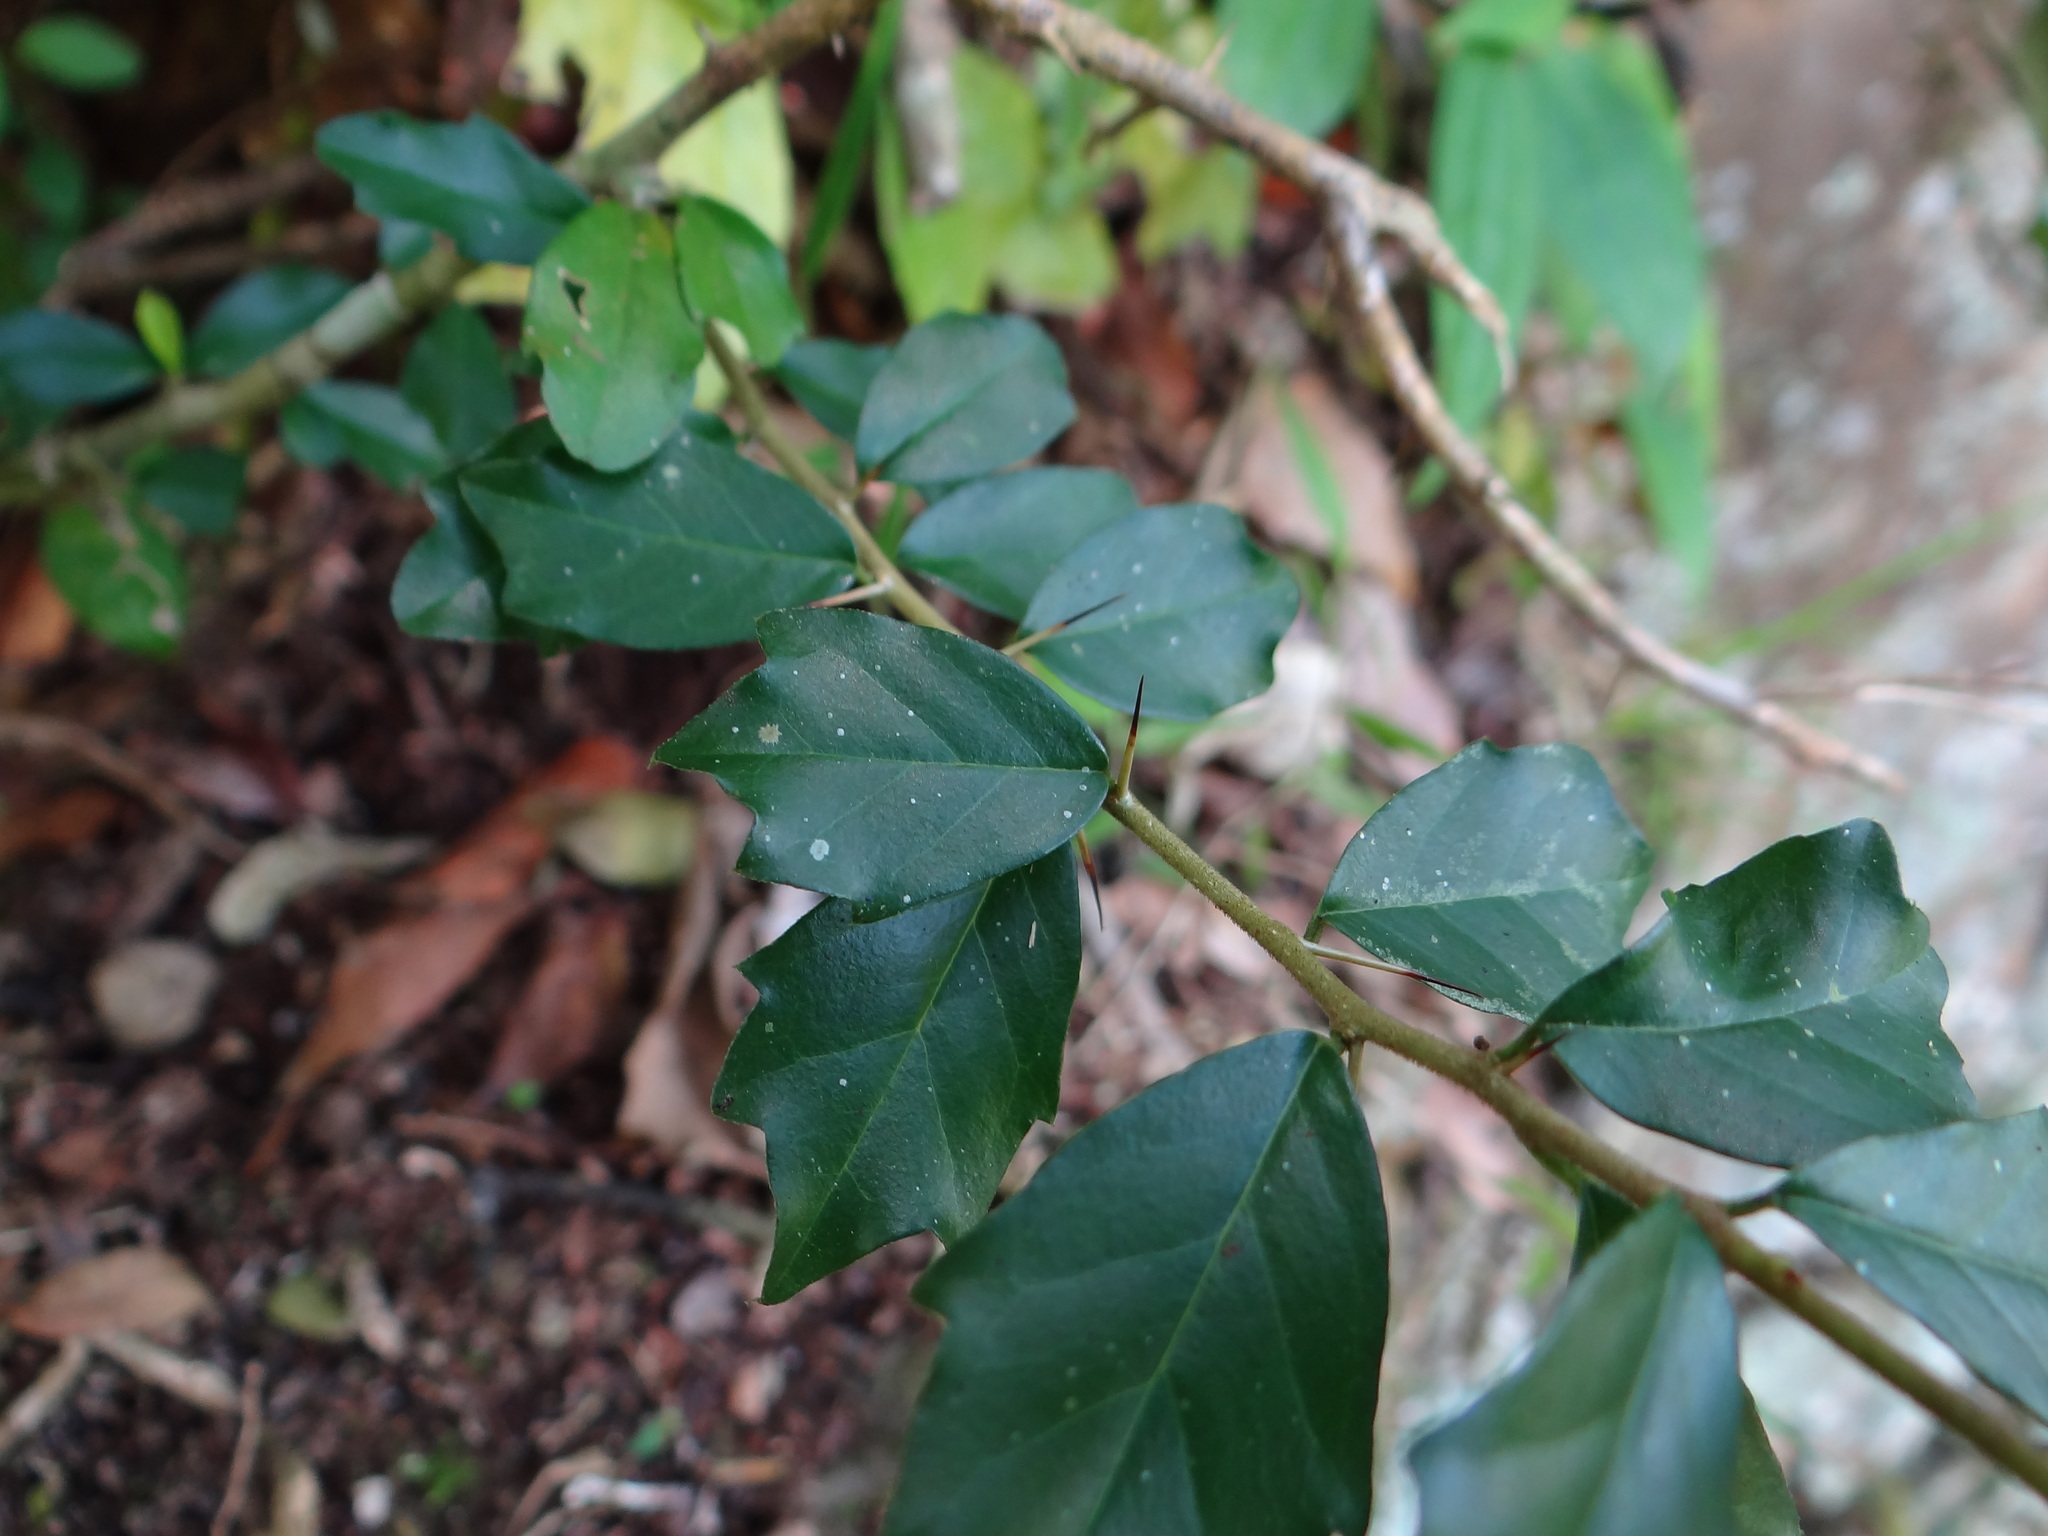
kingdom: Plantae
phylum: Tracheophyta
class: Magnoliopsida
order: Rosales
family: Moraceae
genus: Maclura
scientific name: Maclura cochinchinensis
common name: Cockspurthorn
